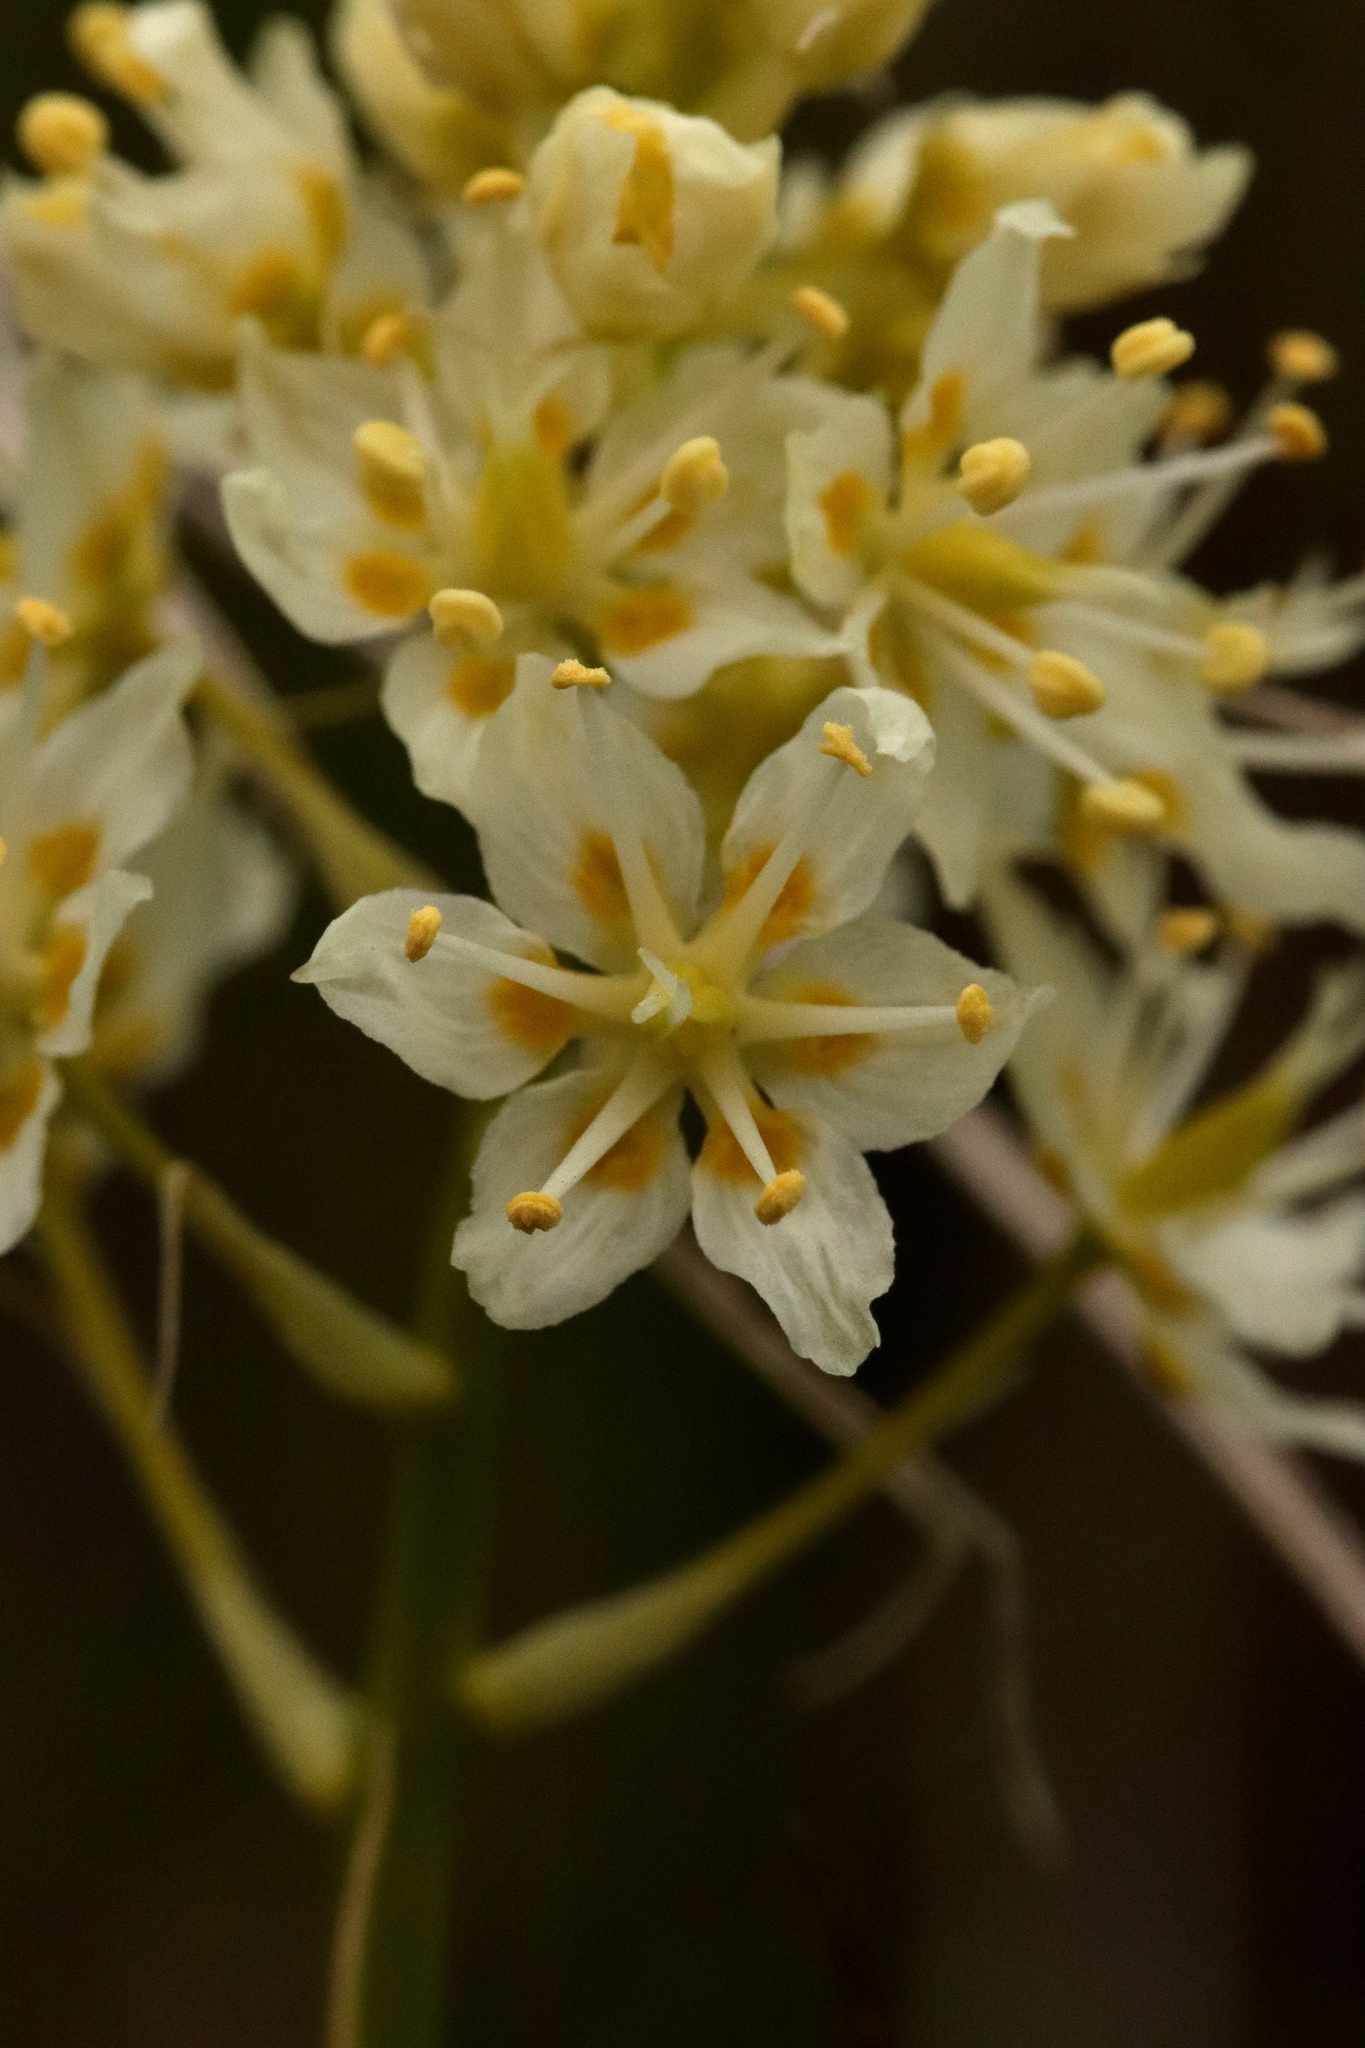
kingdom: Plantae
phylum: Tracheophyta
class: Liliopsida
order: Liliales
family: Melanthiaceae
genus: Toxicoscordion
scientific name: Toxicoscordion venenosum
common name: Meadow death camas
